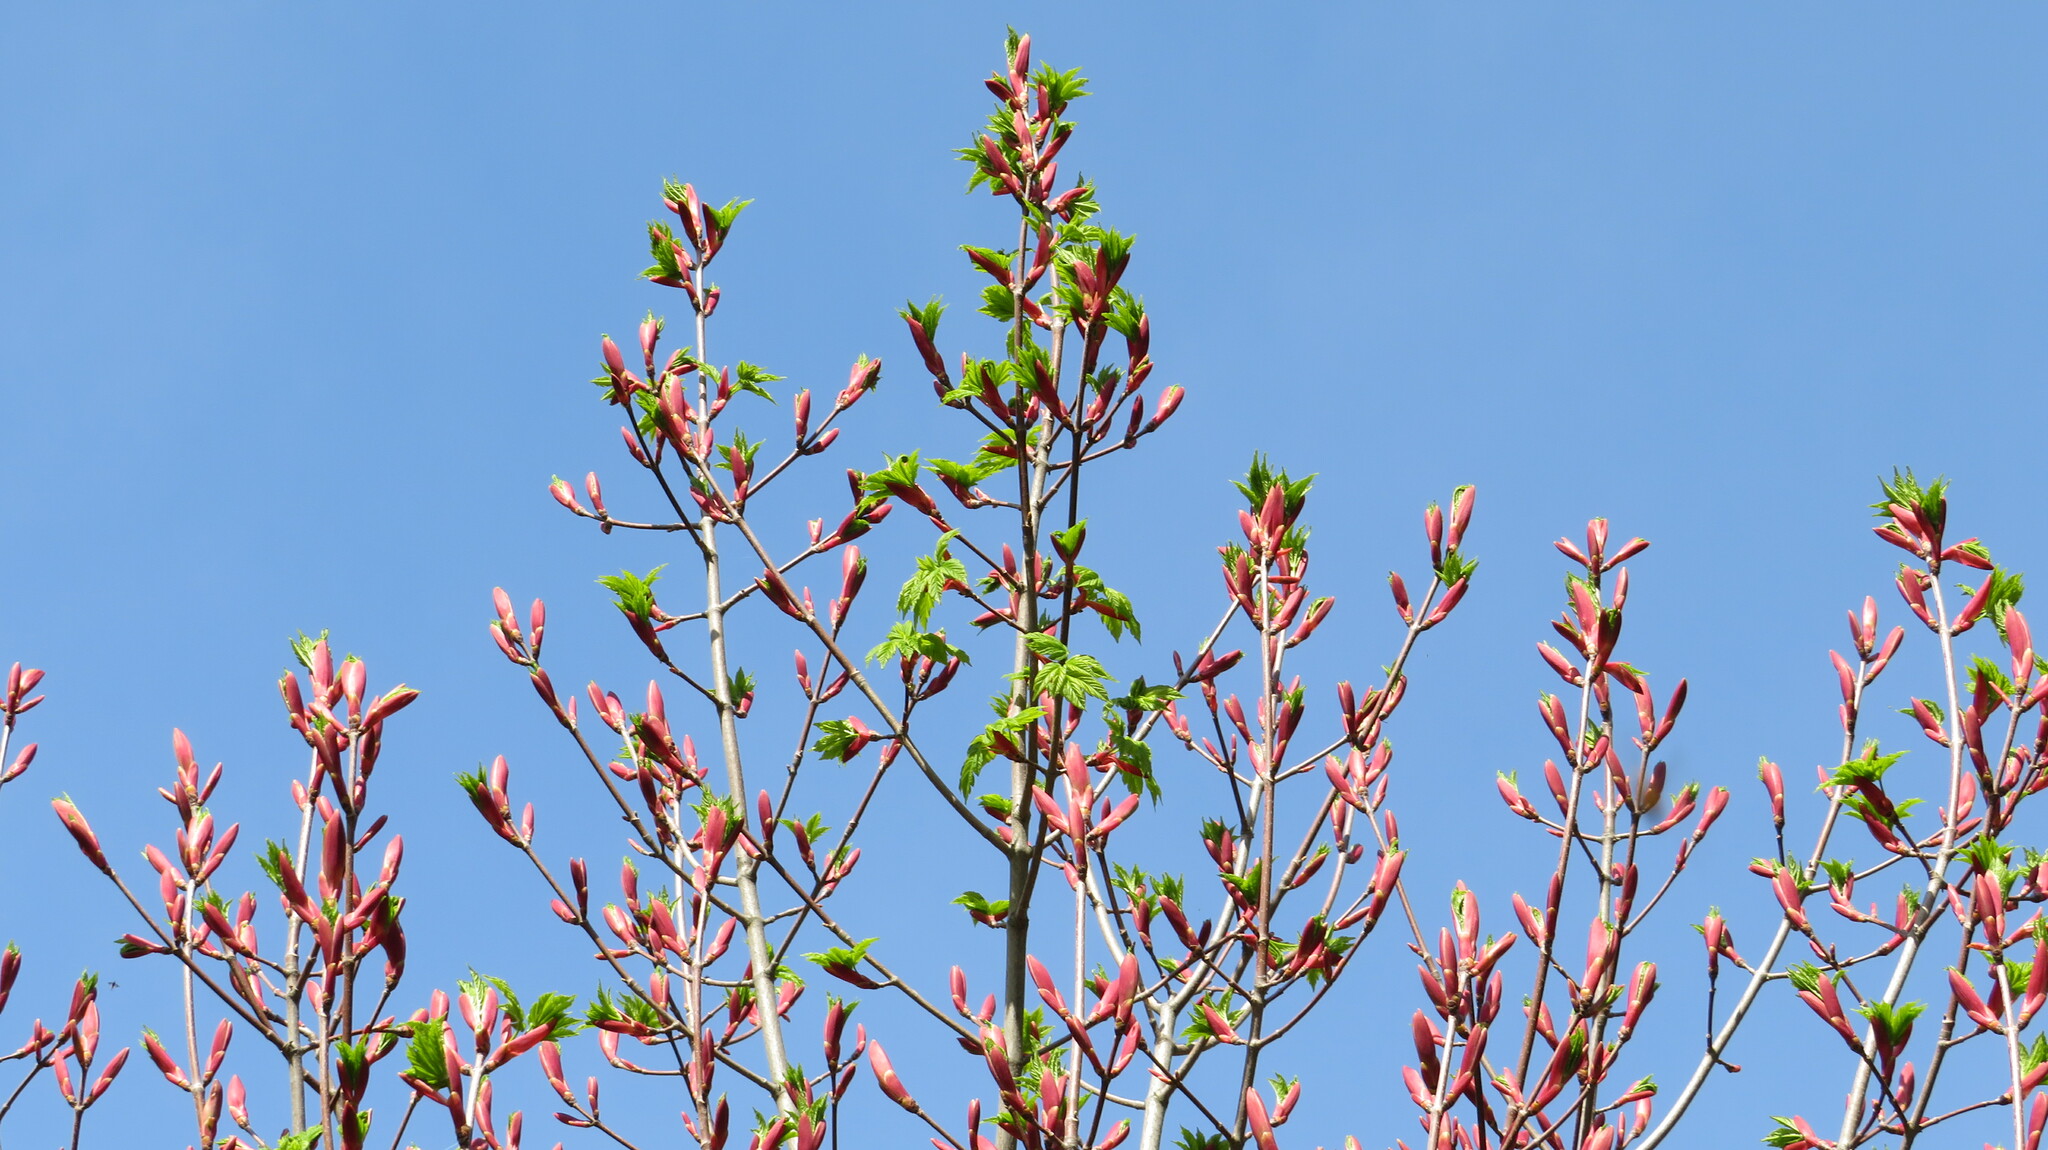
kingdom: Plantae
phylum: Tracheophyta
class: Magnoliopsida
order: Sapindales
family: Sapindaceae
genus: Acer
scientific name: Acer heldreichii
